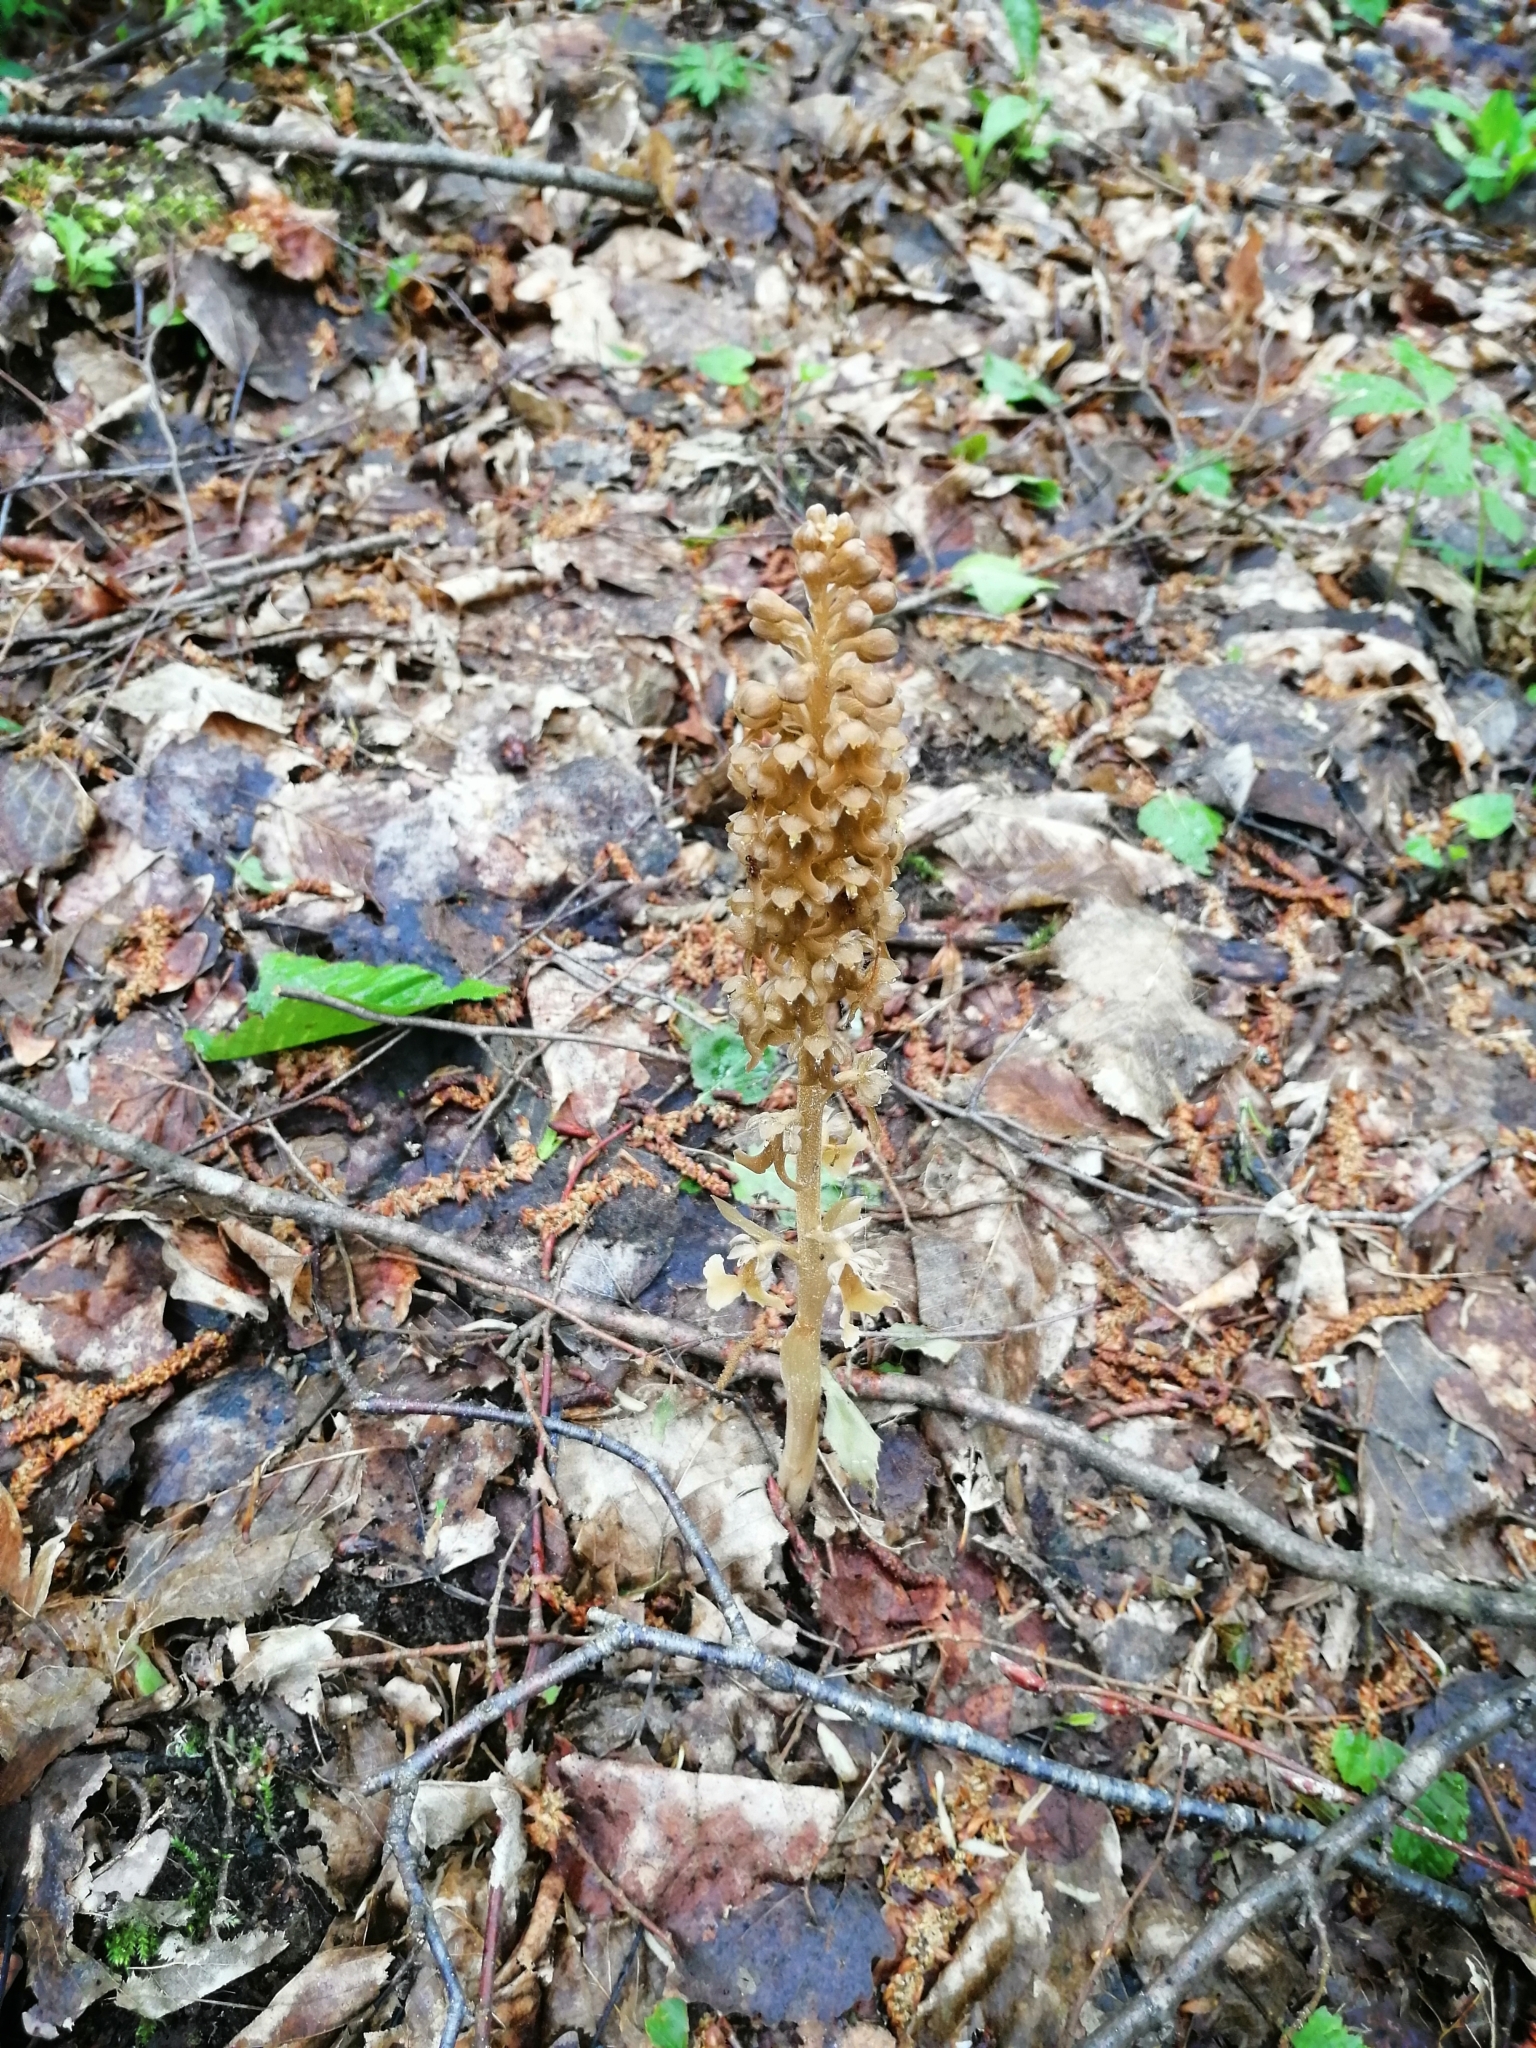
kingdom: Plantae
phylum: Tracheophyta
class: Liliopsida
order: Asparagales
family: Orchidaceae
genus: Neottia
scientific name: Neottia nidus-avis
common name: Bird's-nest orchid
